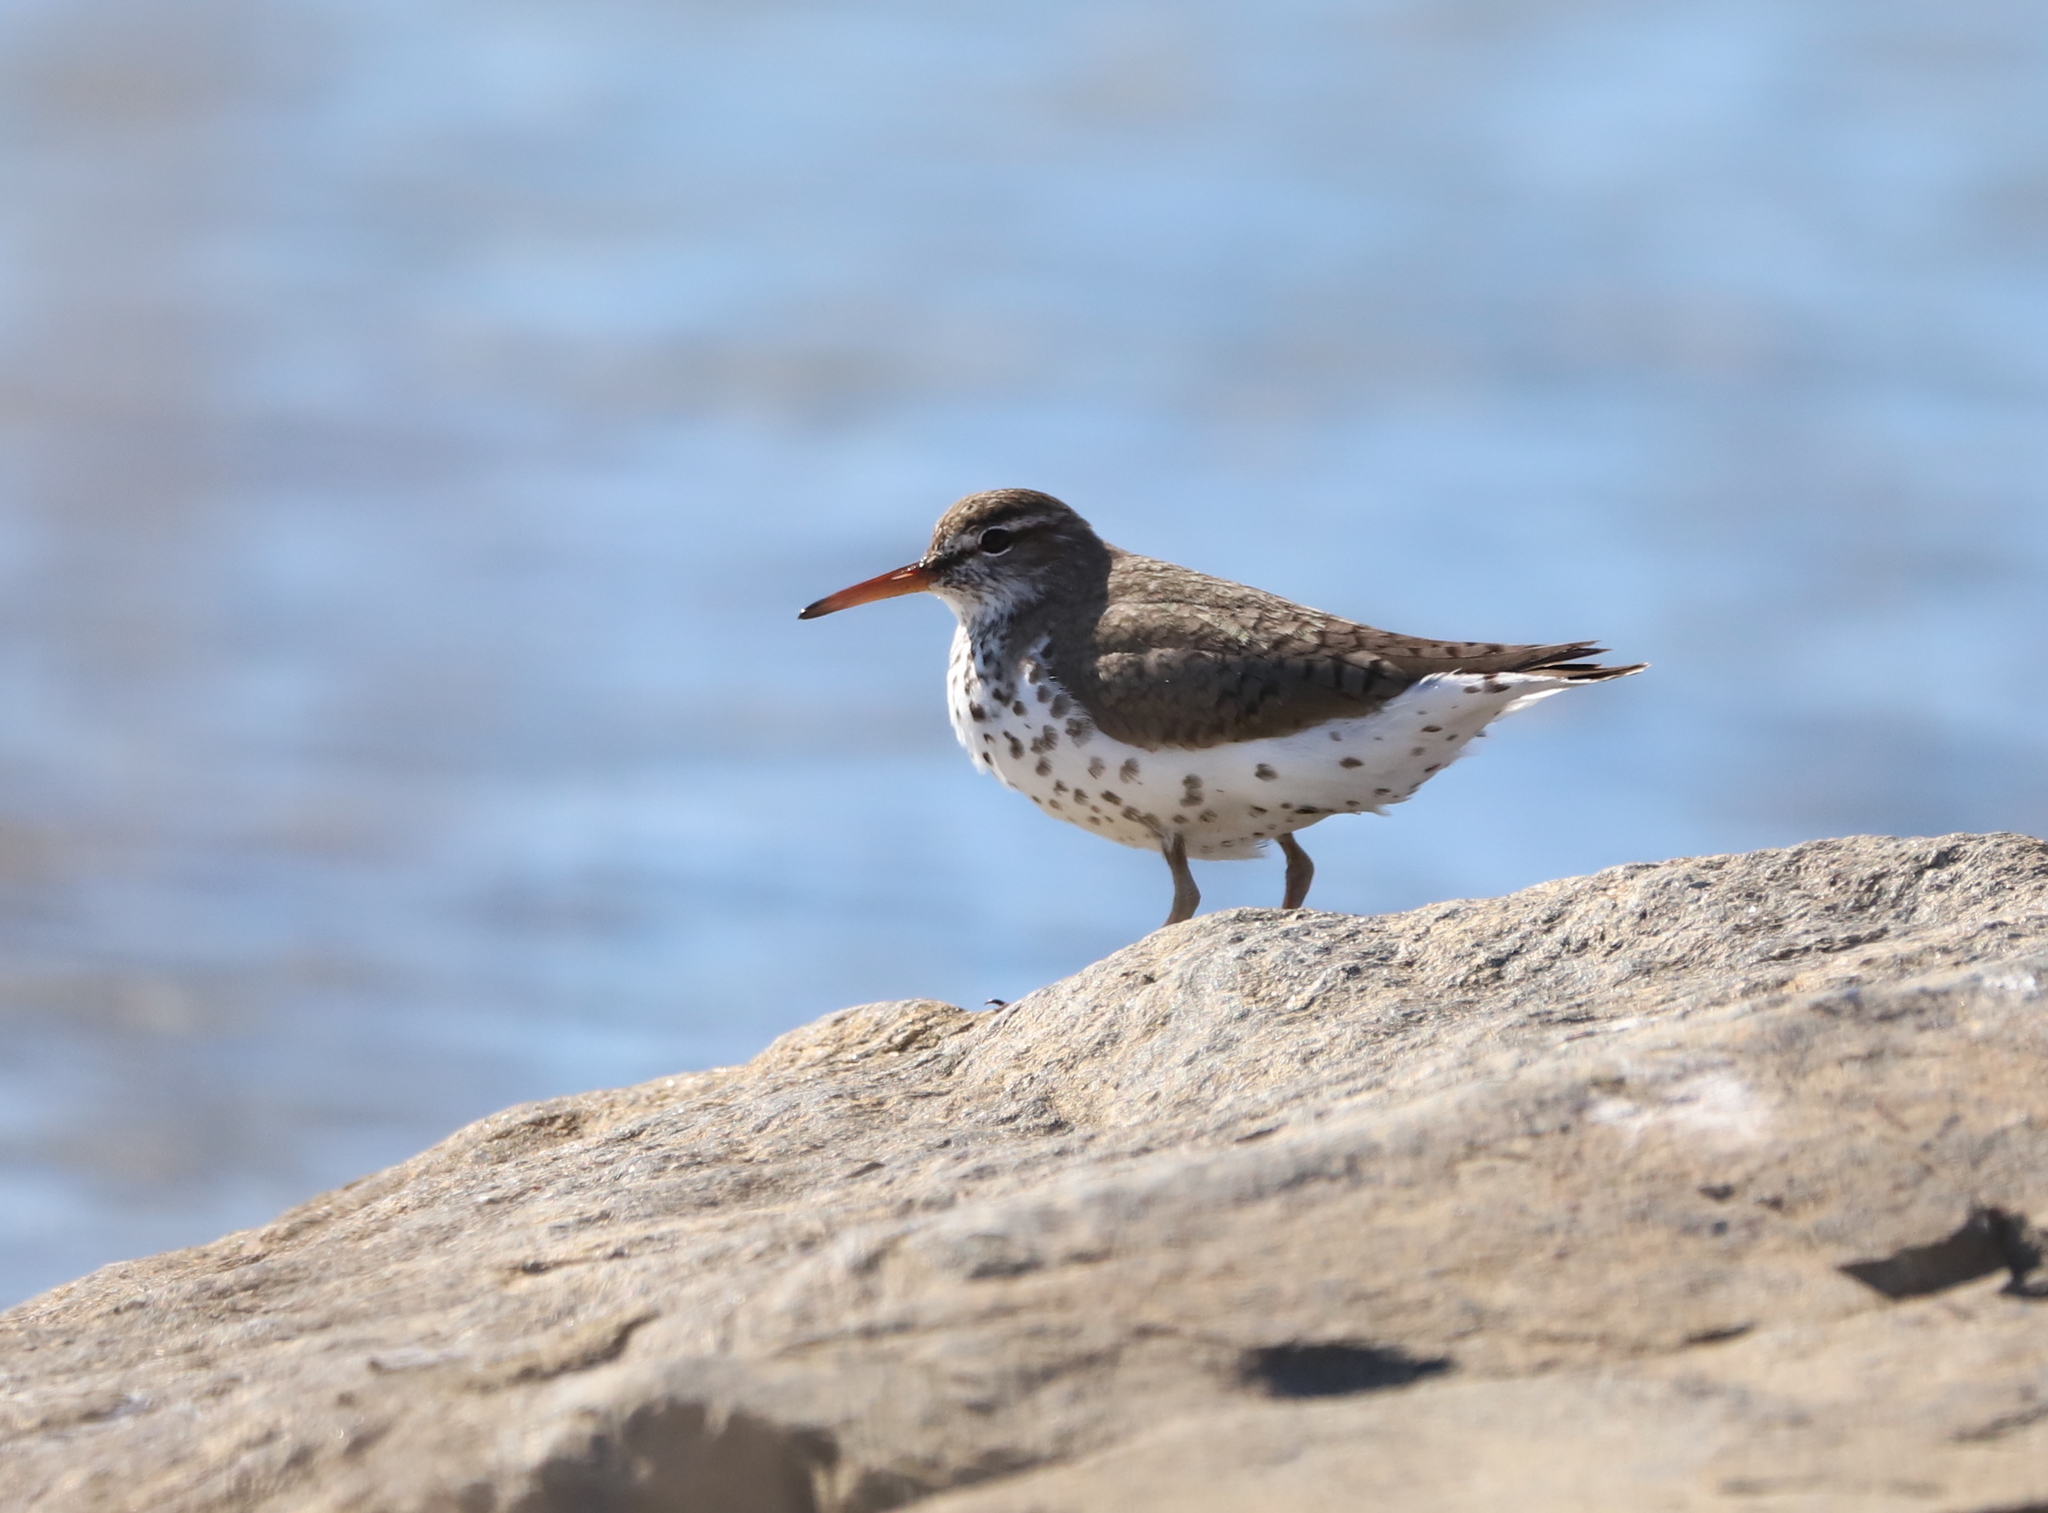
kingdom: Animalia
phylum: Chordata
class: Aves
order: Charadriiformes
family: Scolopacidae
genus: Actitis
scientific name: Actitis macularius
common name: Spotted sandpiper
